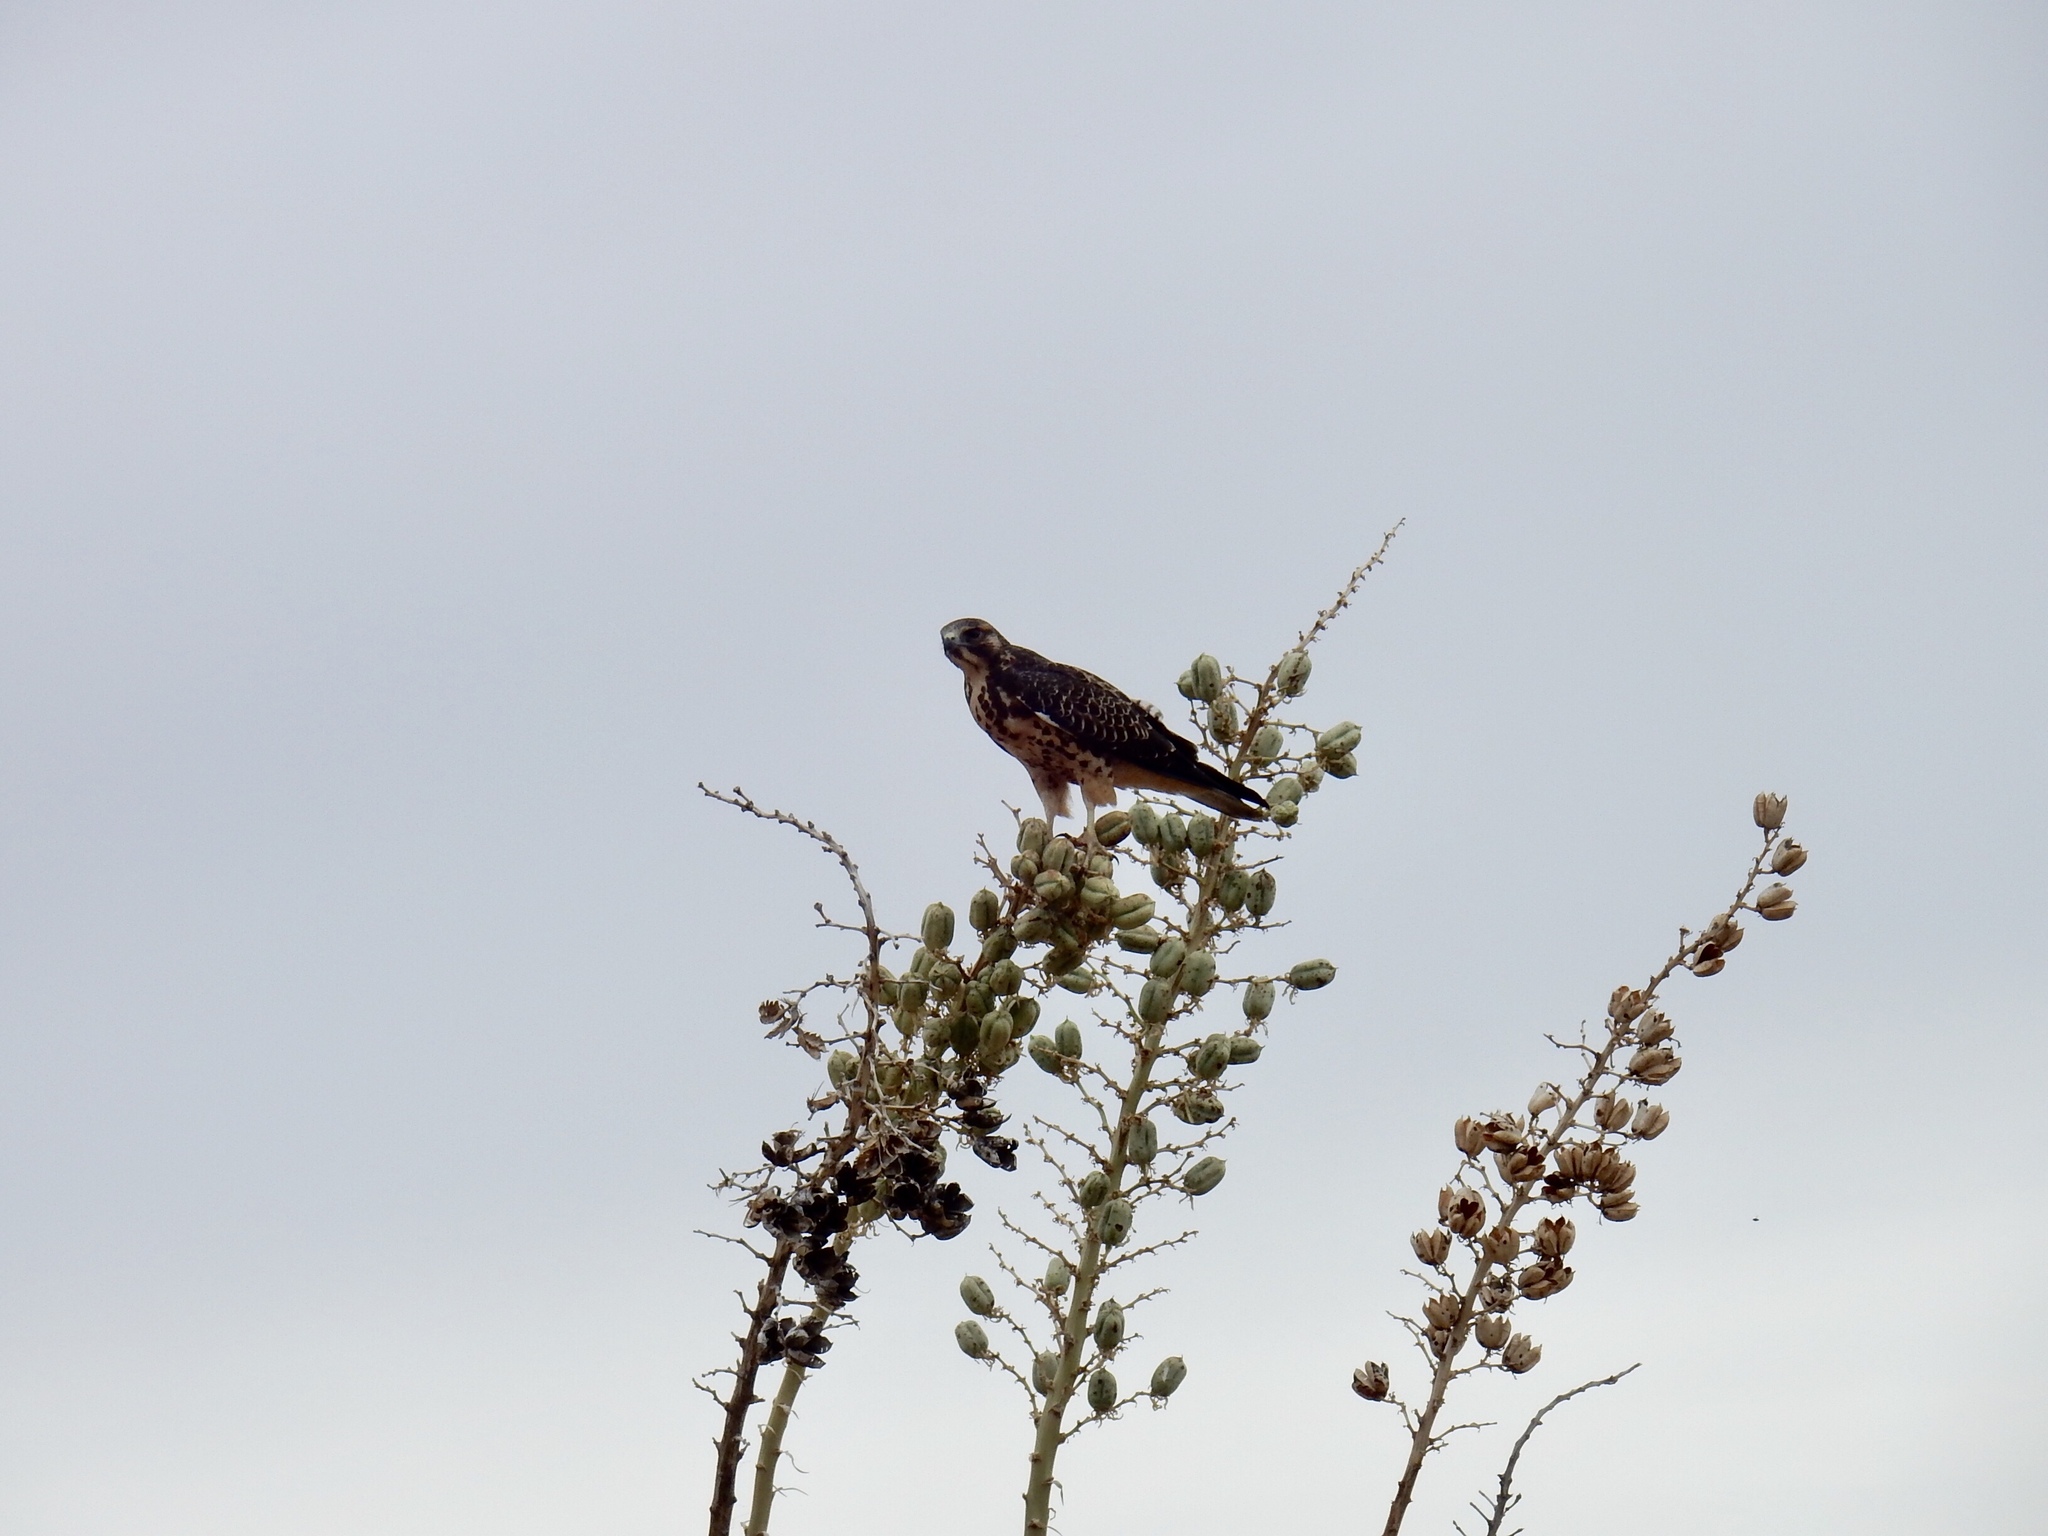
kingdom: Animalia
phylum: Chordata
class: Aves
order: Accipitriformes
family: Accipitridae
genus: Buteo
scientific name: Buteo swainsoni
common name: Swainson's hawk
